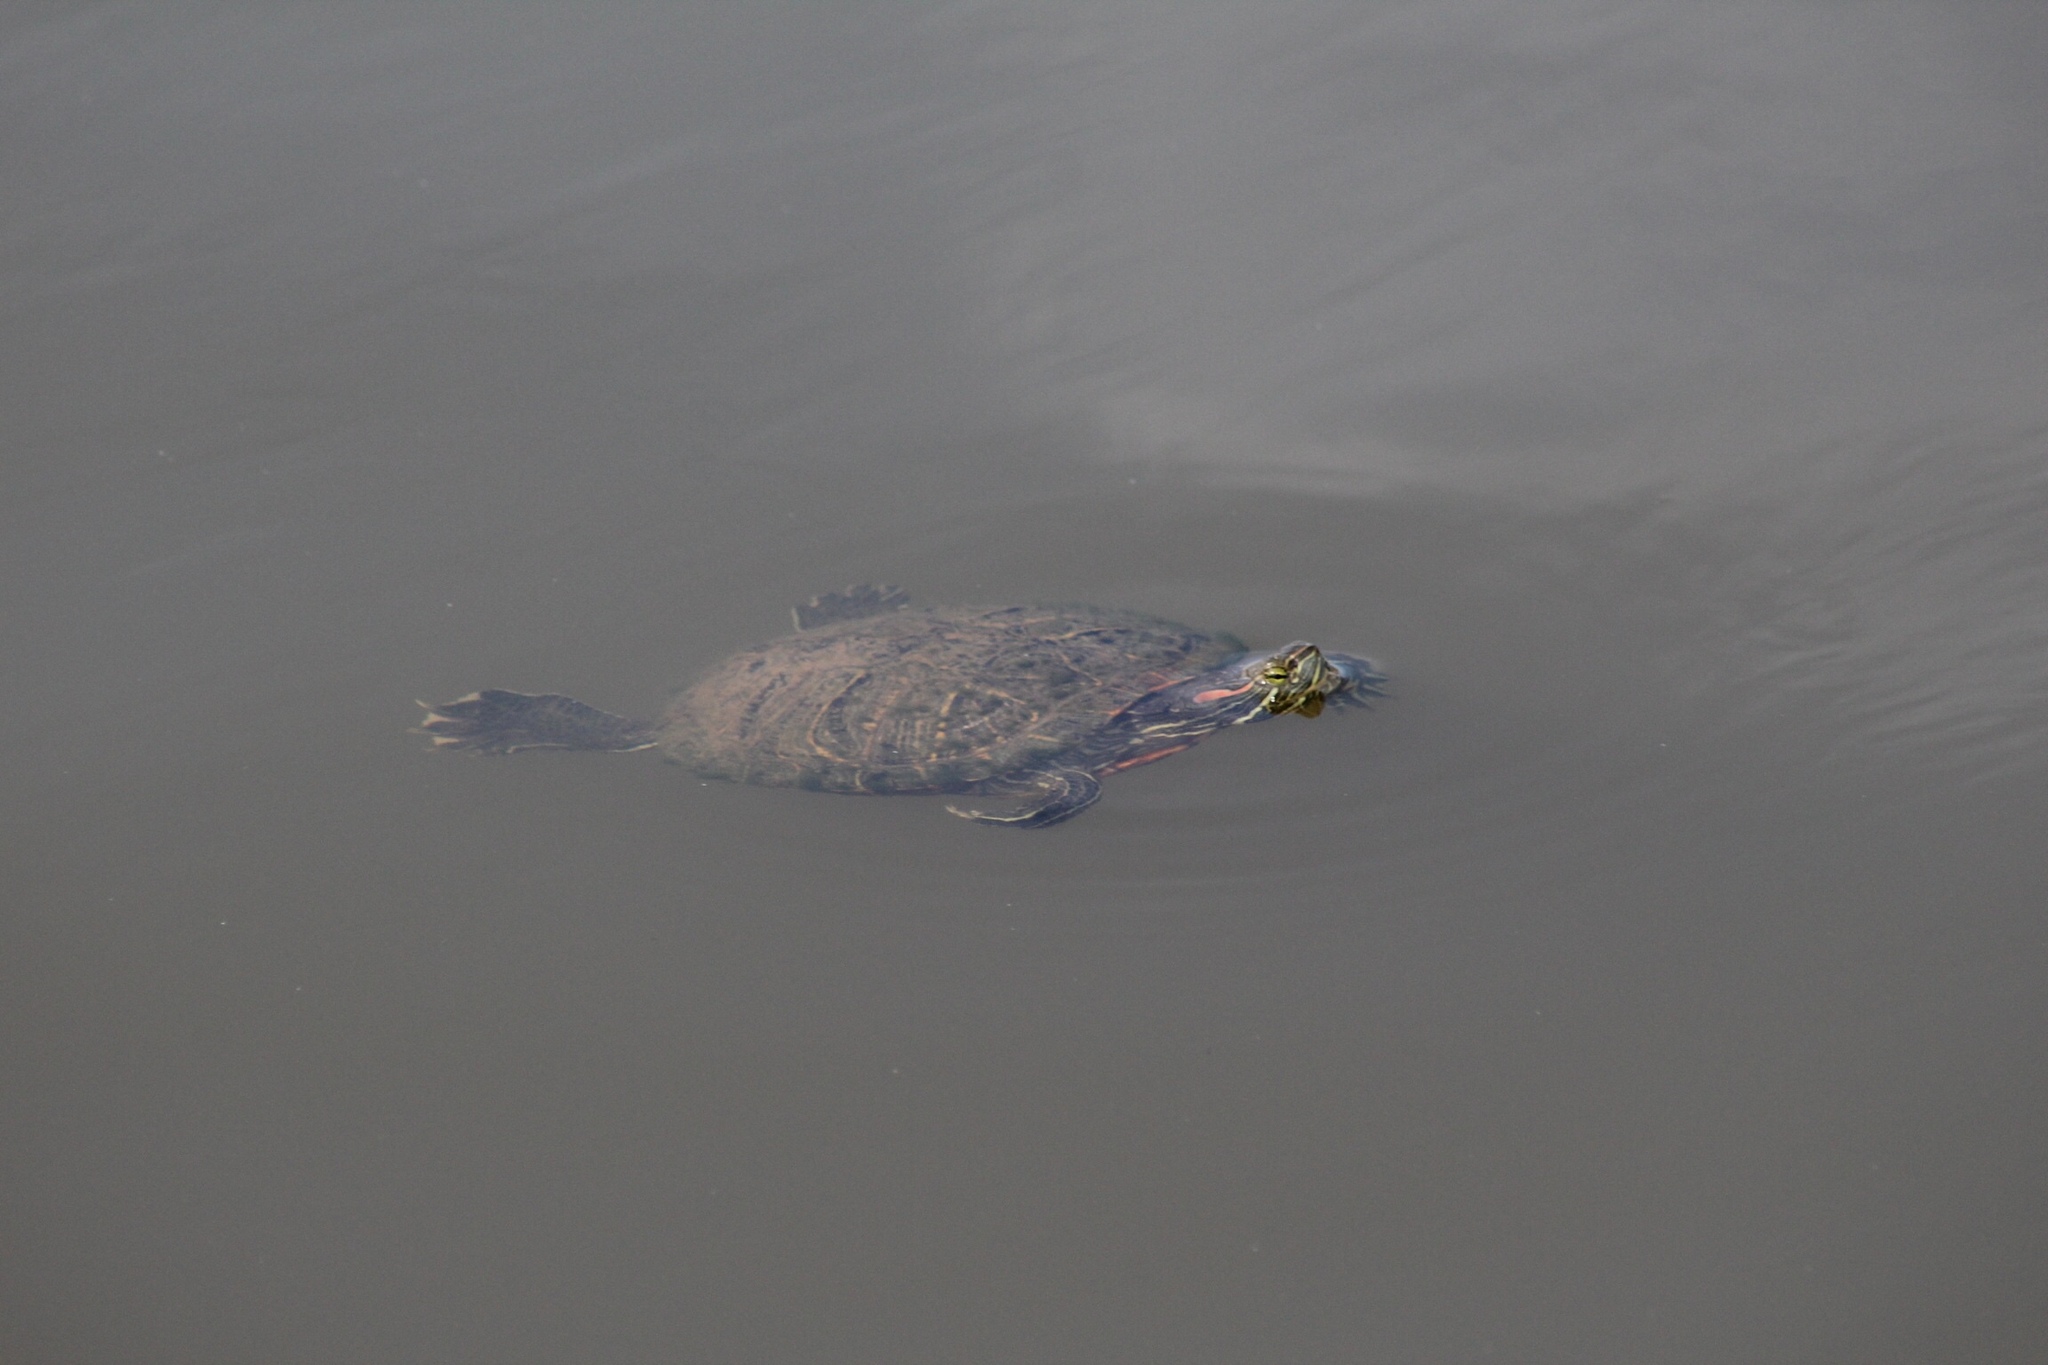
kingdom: Animalia
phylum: Chordata
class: Testudines
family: Emydidae
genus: Trachemys
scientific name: Trachemys scripta
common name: Slider
